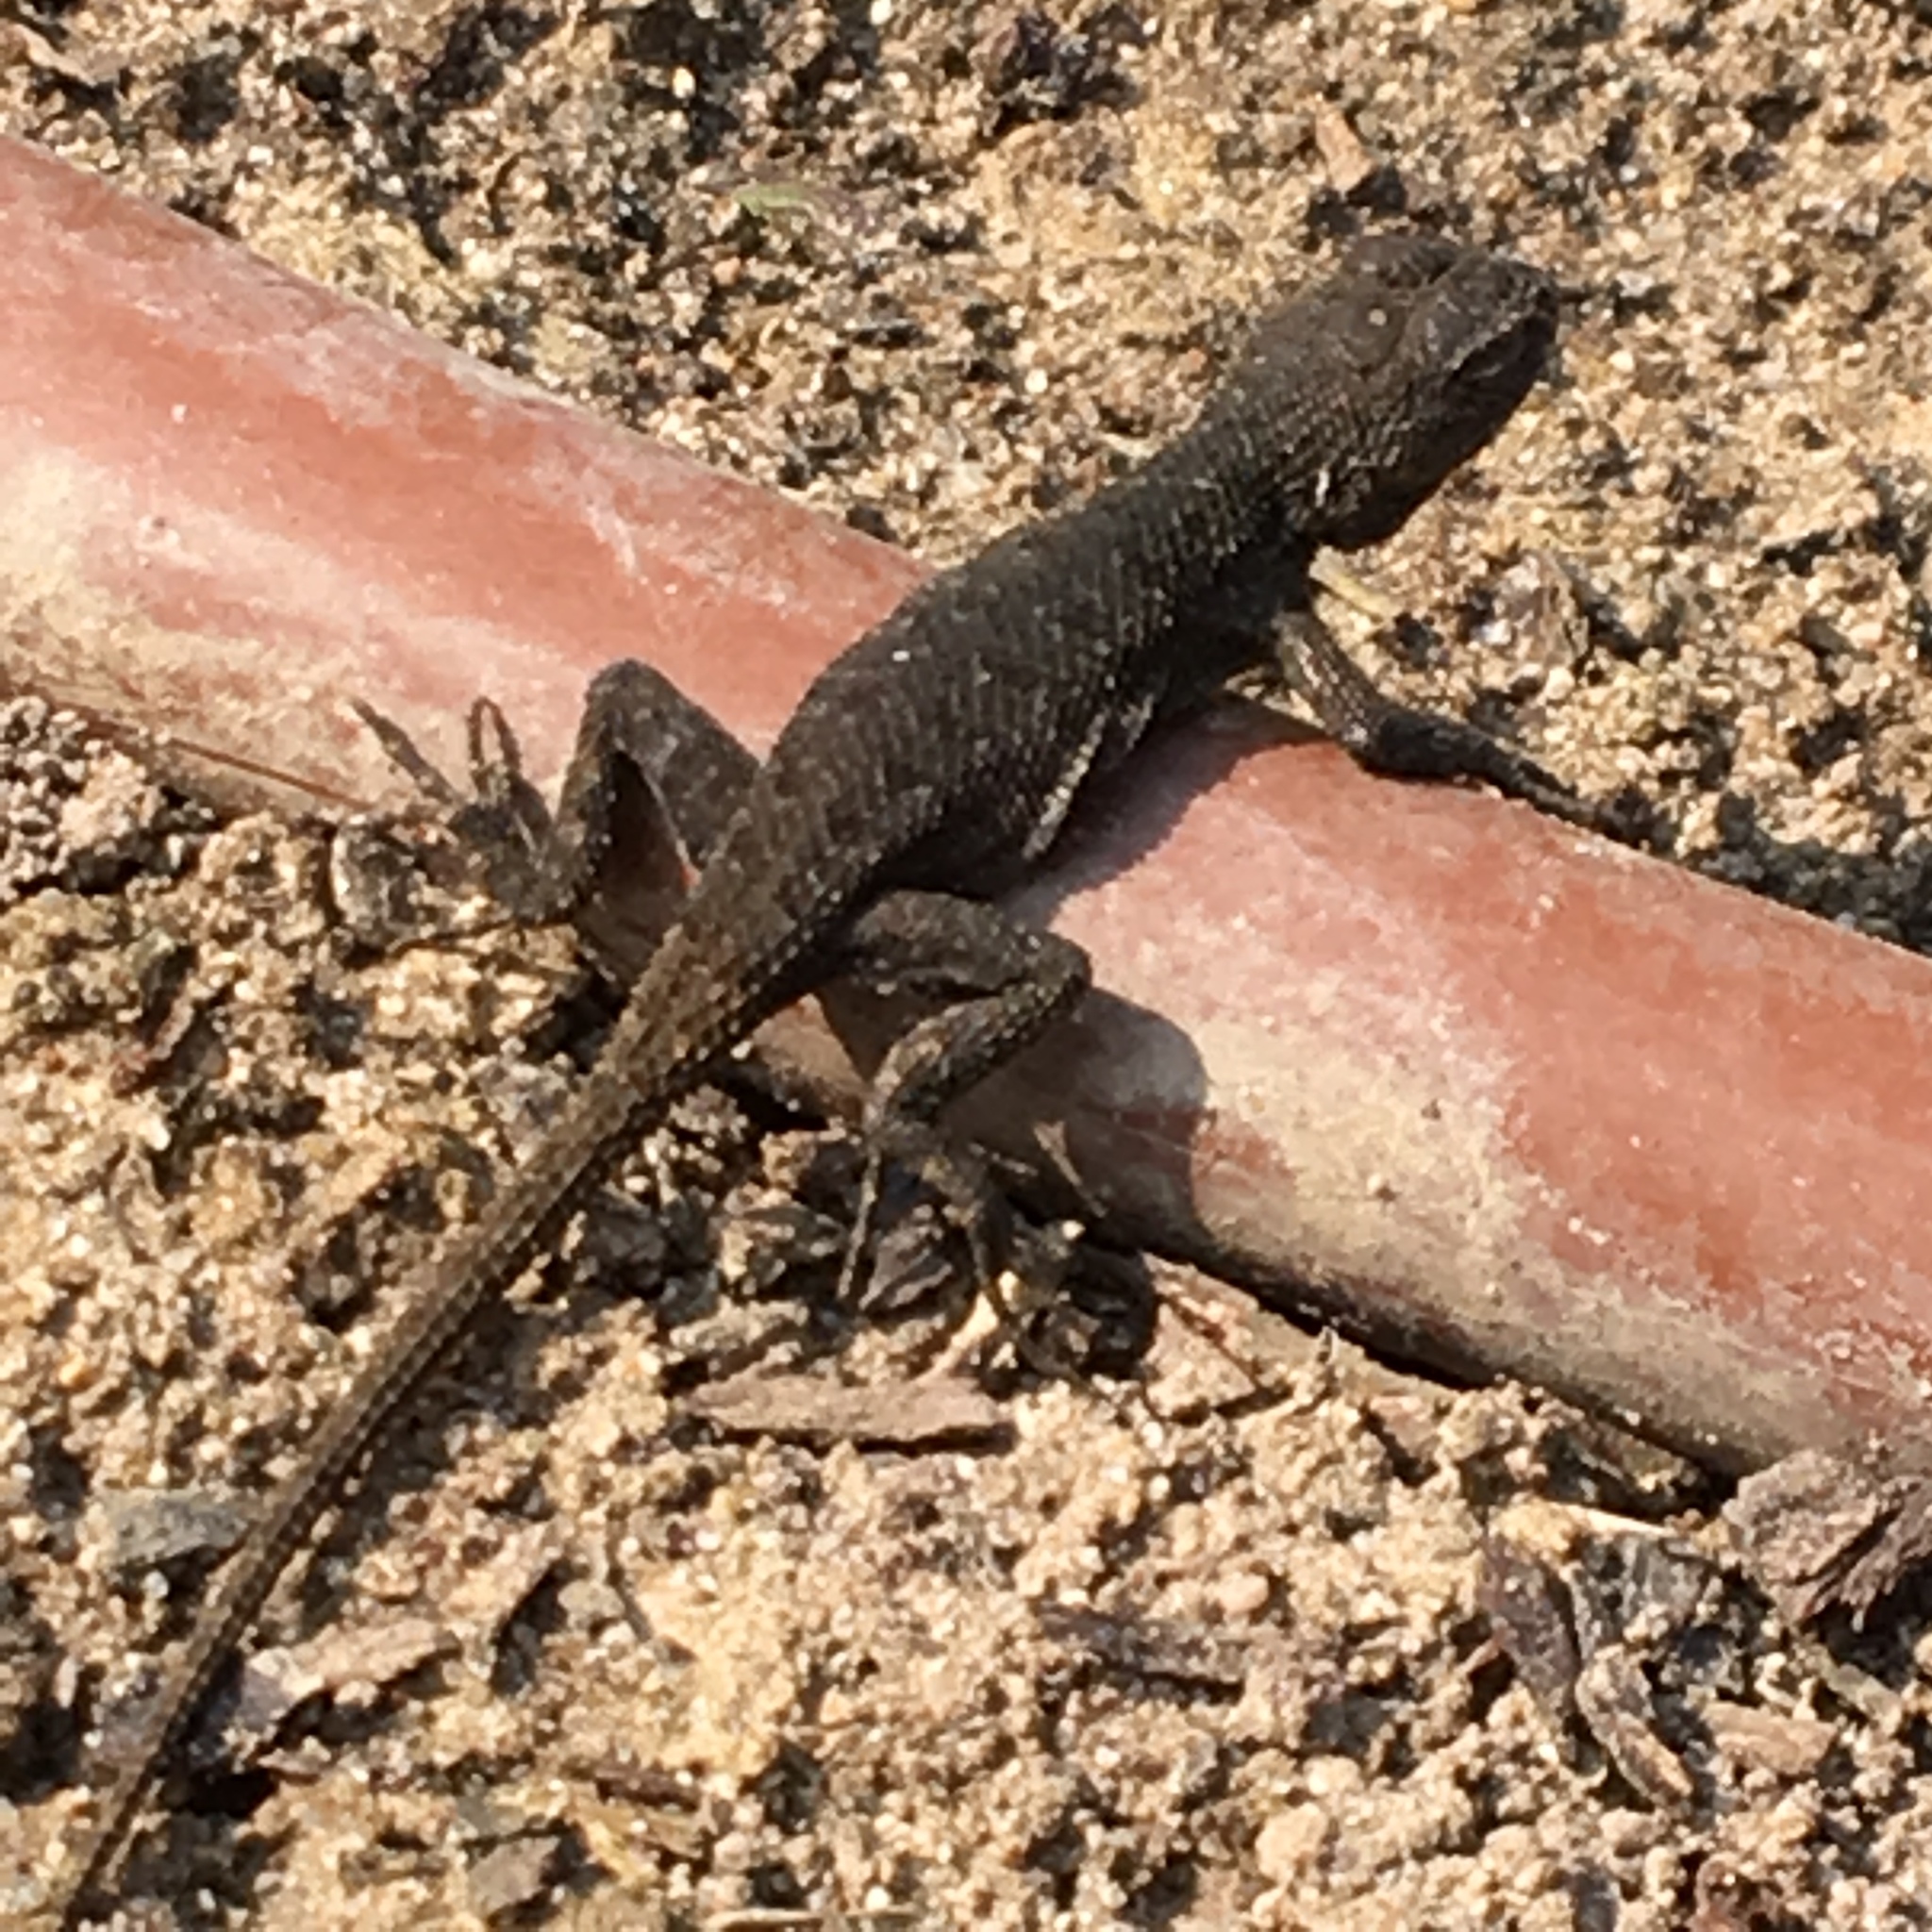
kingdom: Animalia
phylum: Chordata
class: Squamata
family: Phrynosomatidae
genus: Sceloporus
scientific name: Sceloporus occidentalis
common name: Western fence lizard
